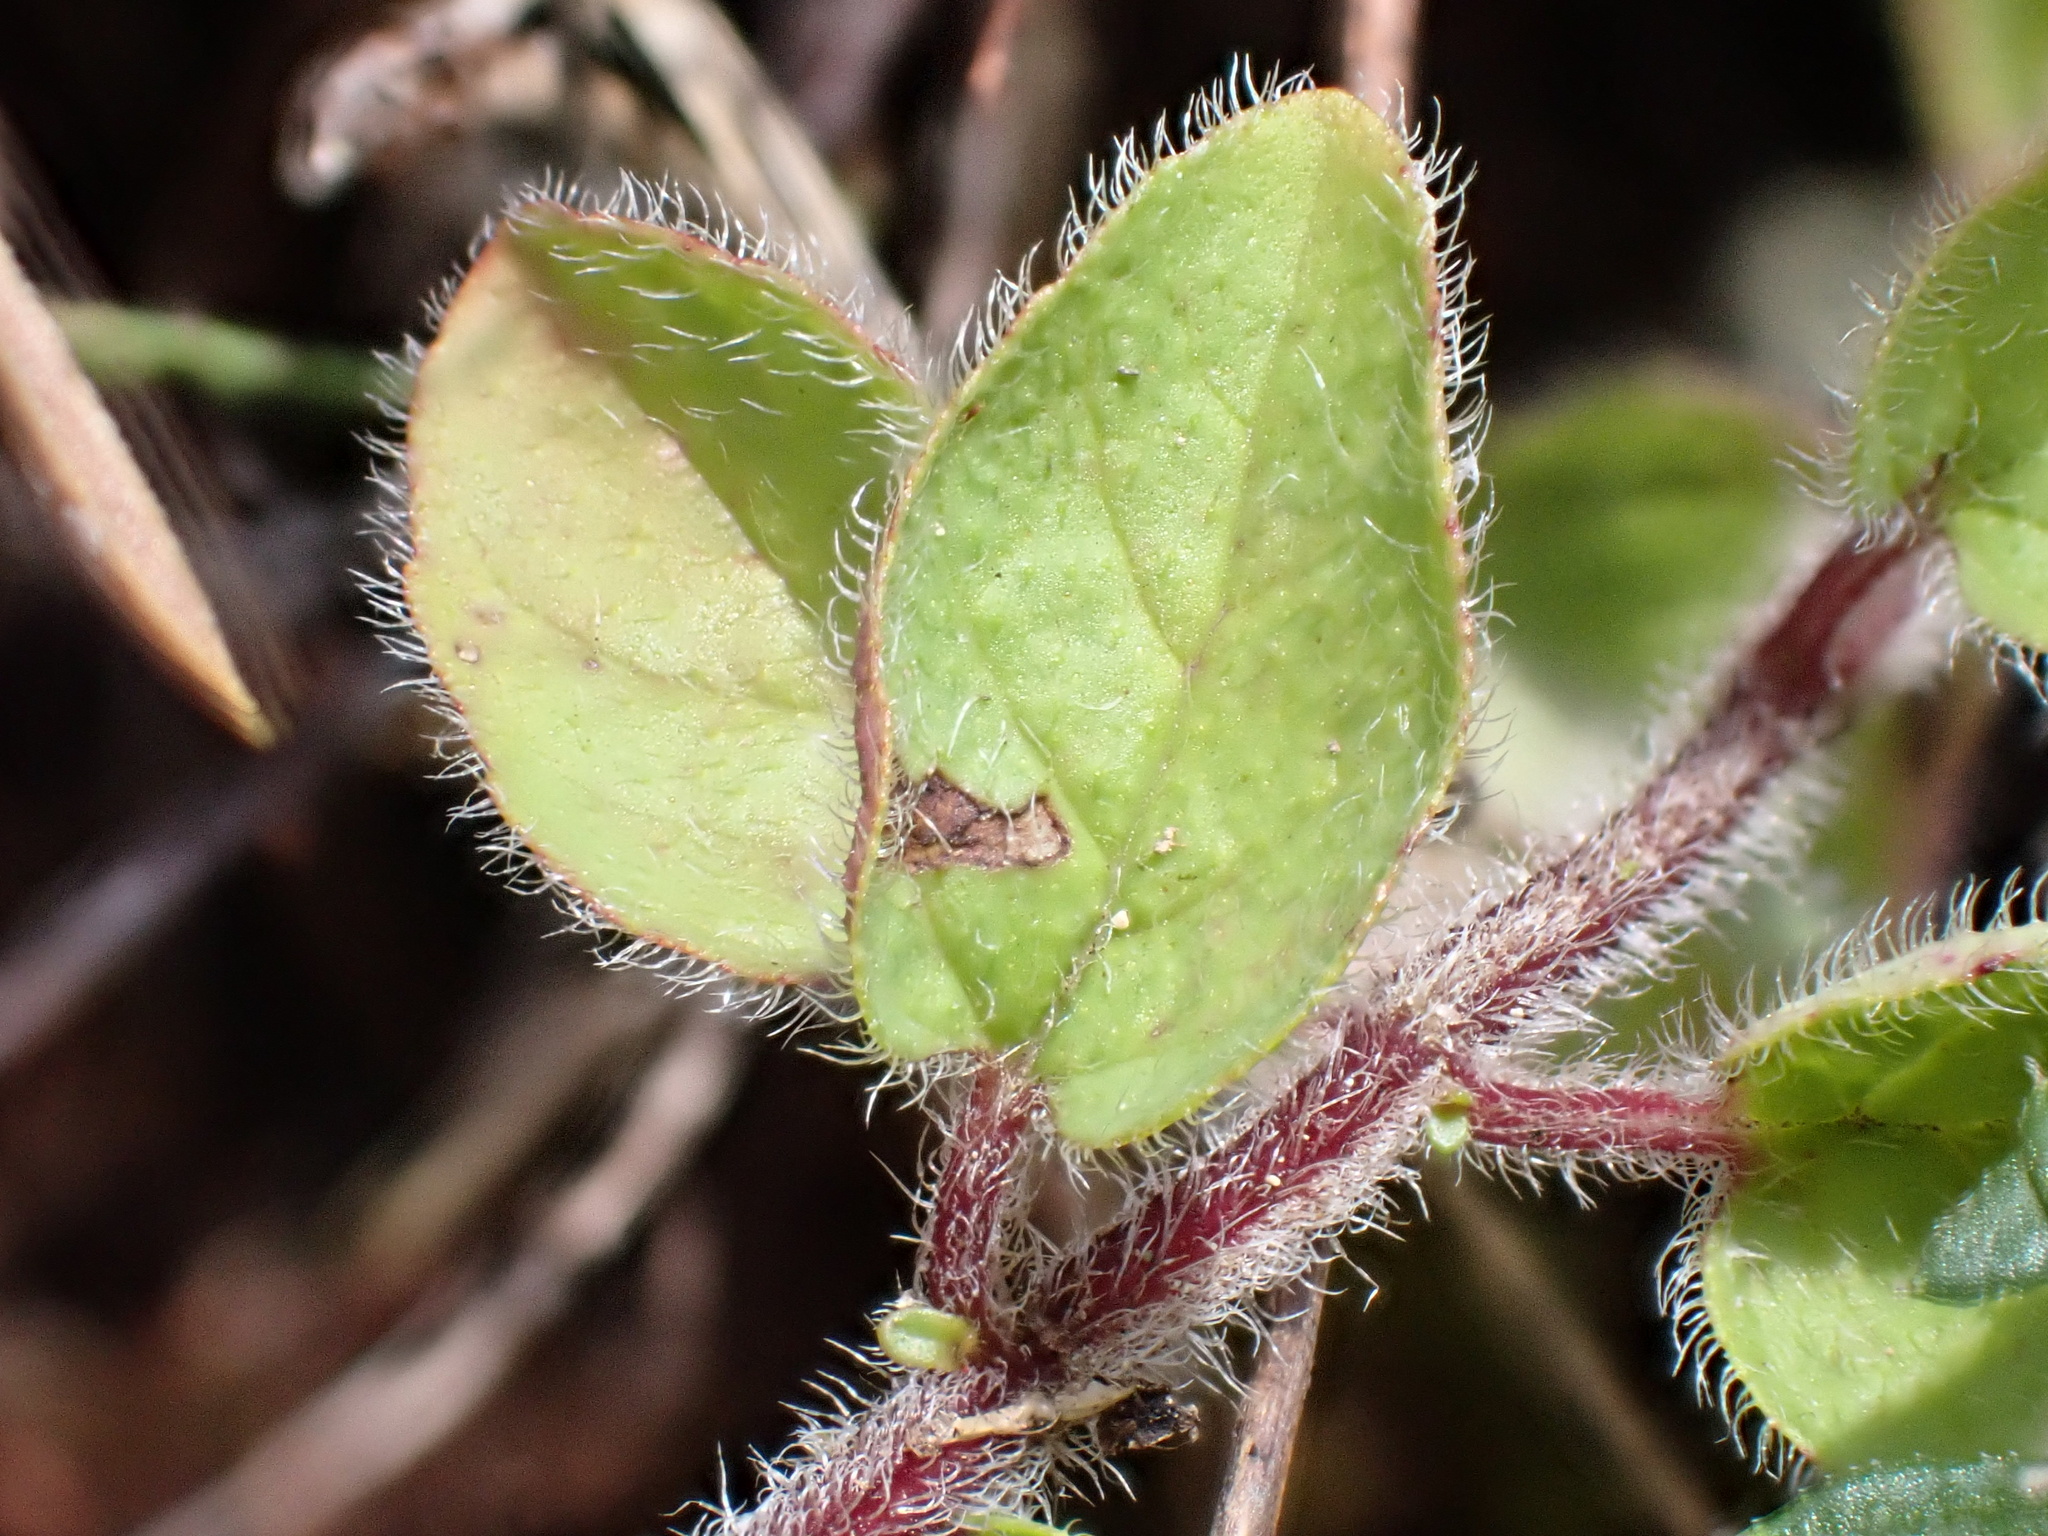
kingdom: Plantae
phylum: Tracheophyta
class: Magnoliopsida
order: Lamiales
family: Lamiaceae
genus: Origanum
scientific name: Origanum vulgare
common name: Wild marjoram
